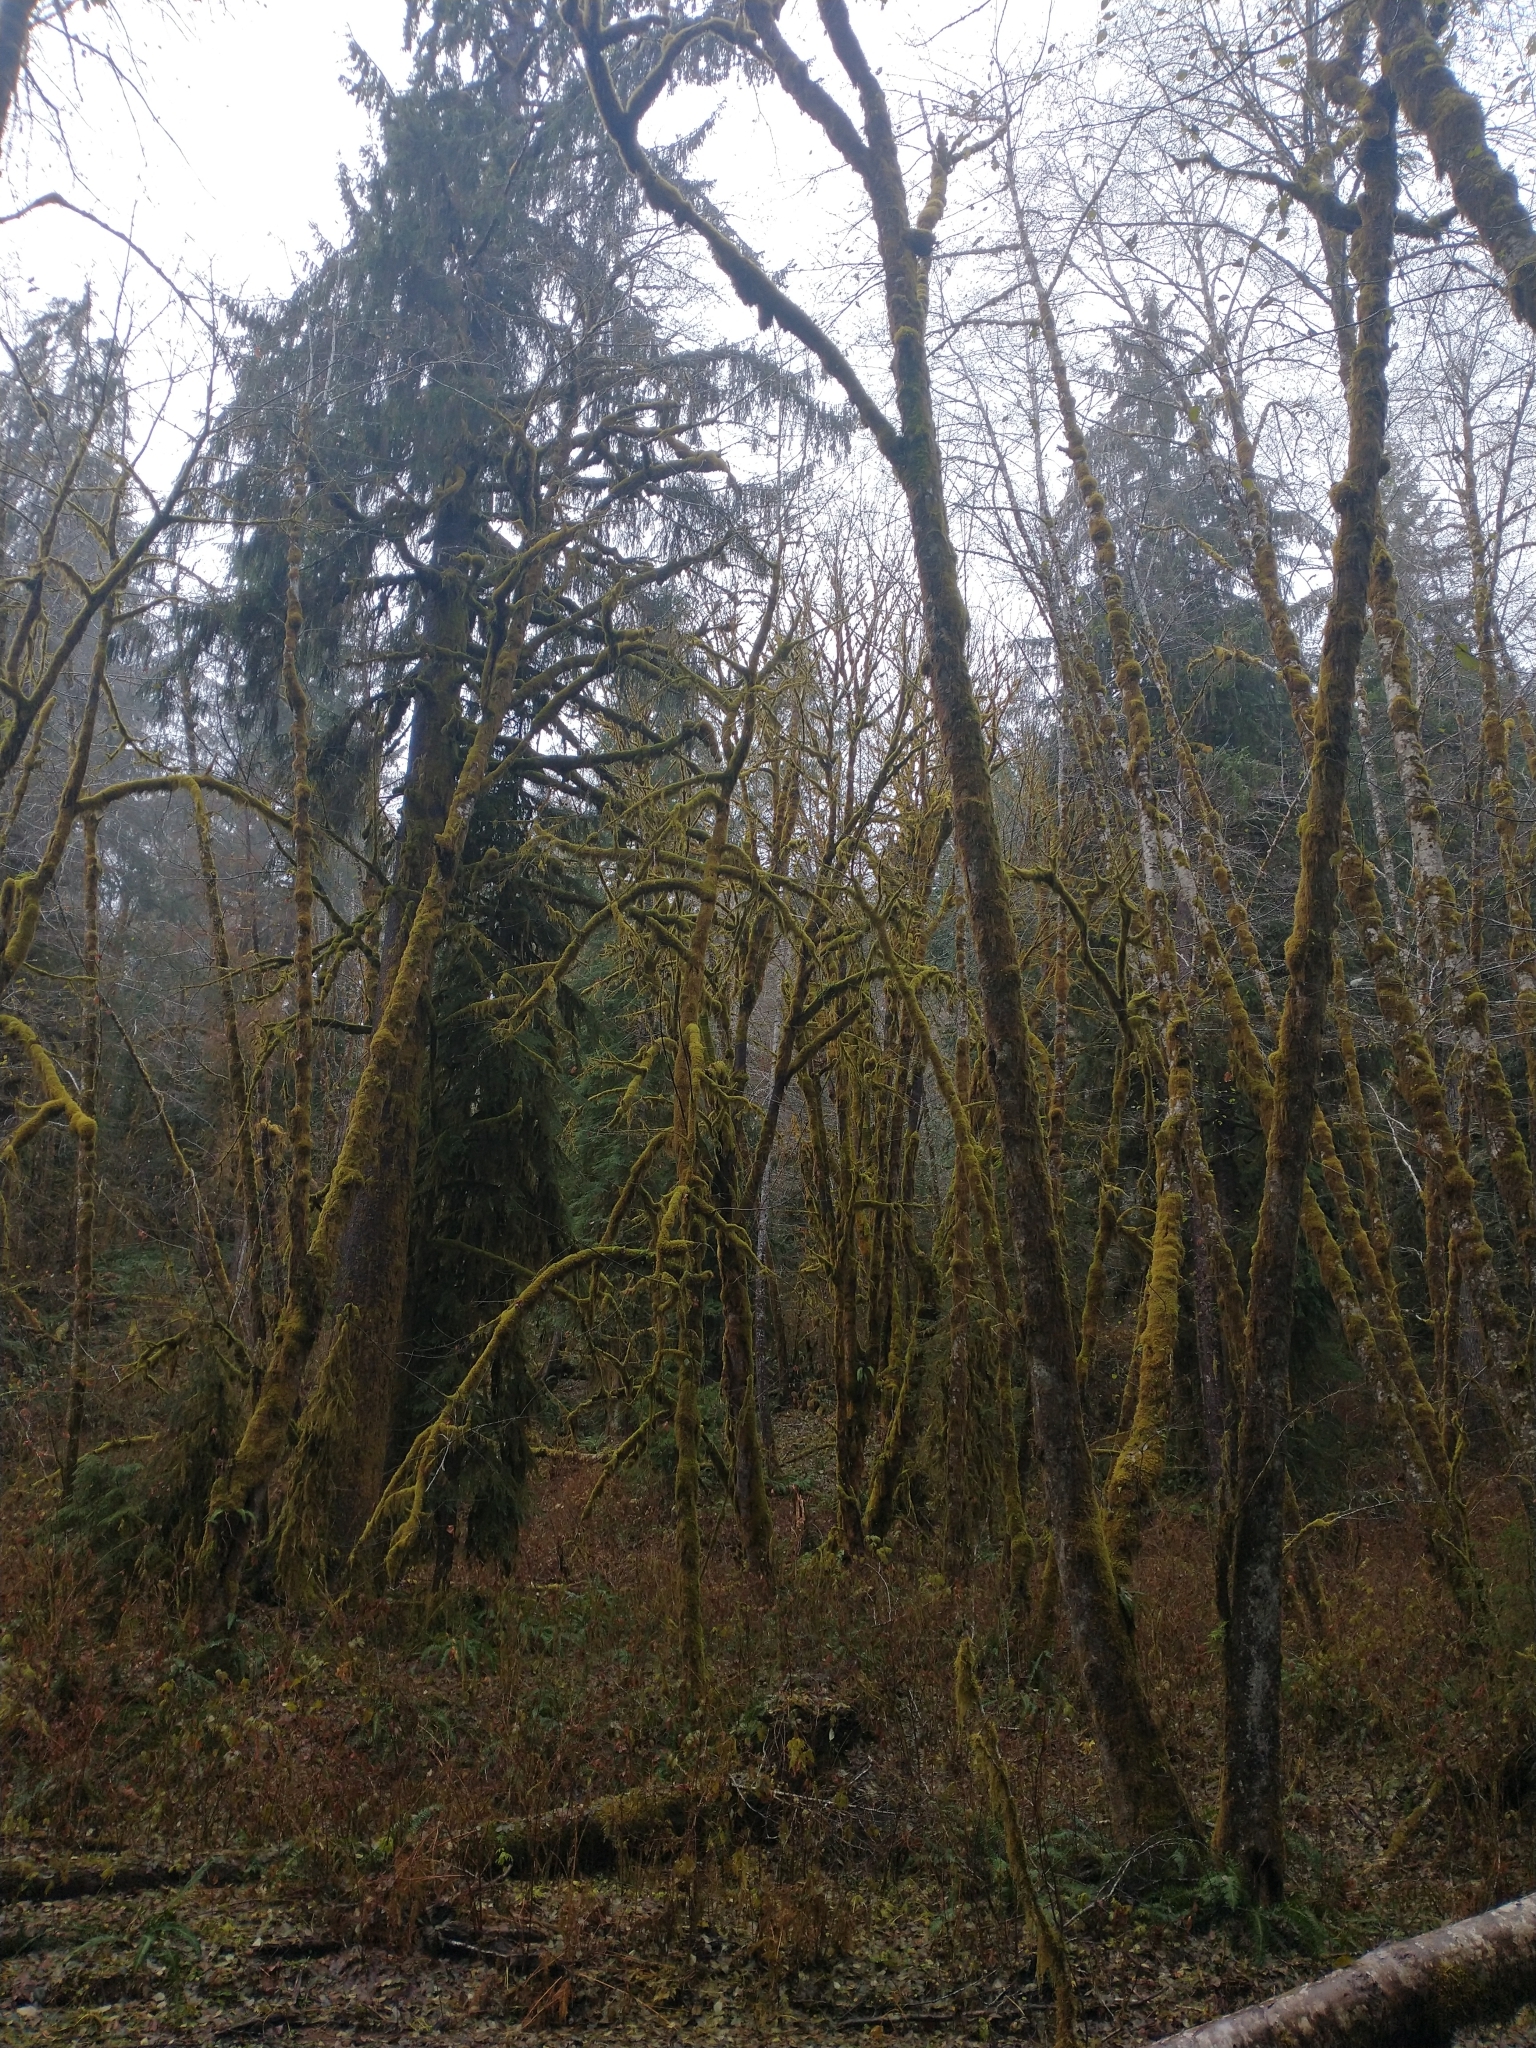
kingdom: Plantae
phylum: Tracheophyta
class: Pinopsida
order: Pinales
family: Pinaceae
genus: Picea
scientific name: Picea sitchensis
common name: Sitka spruce
